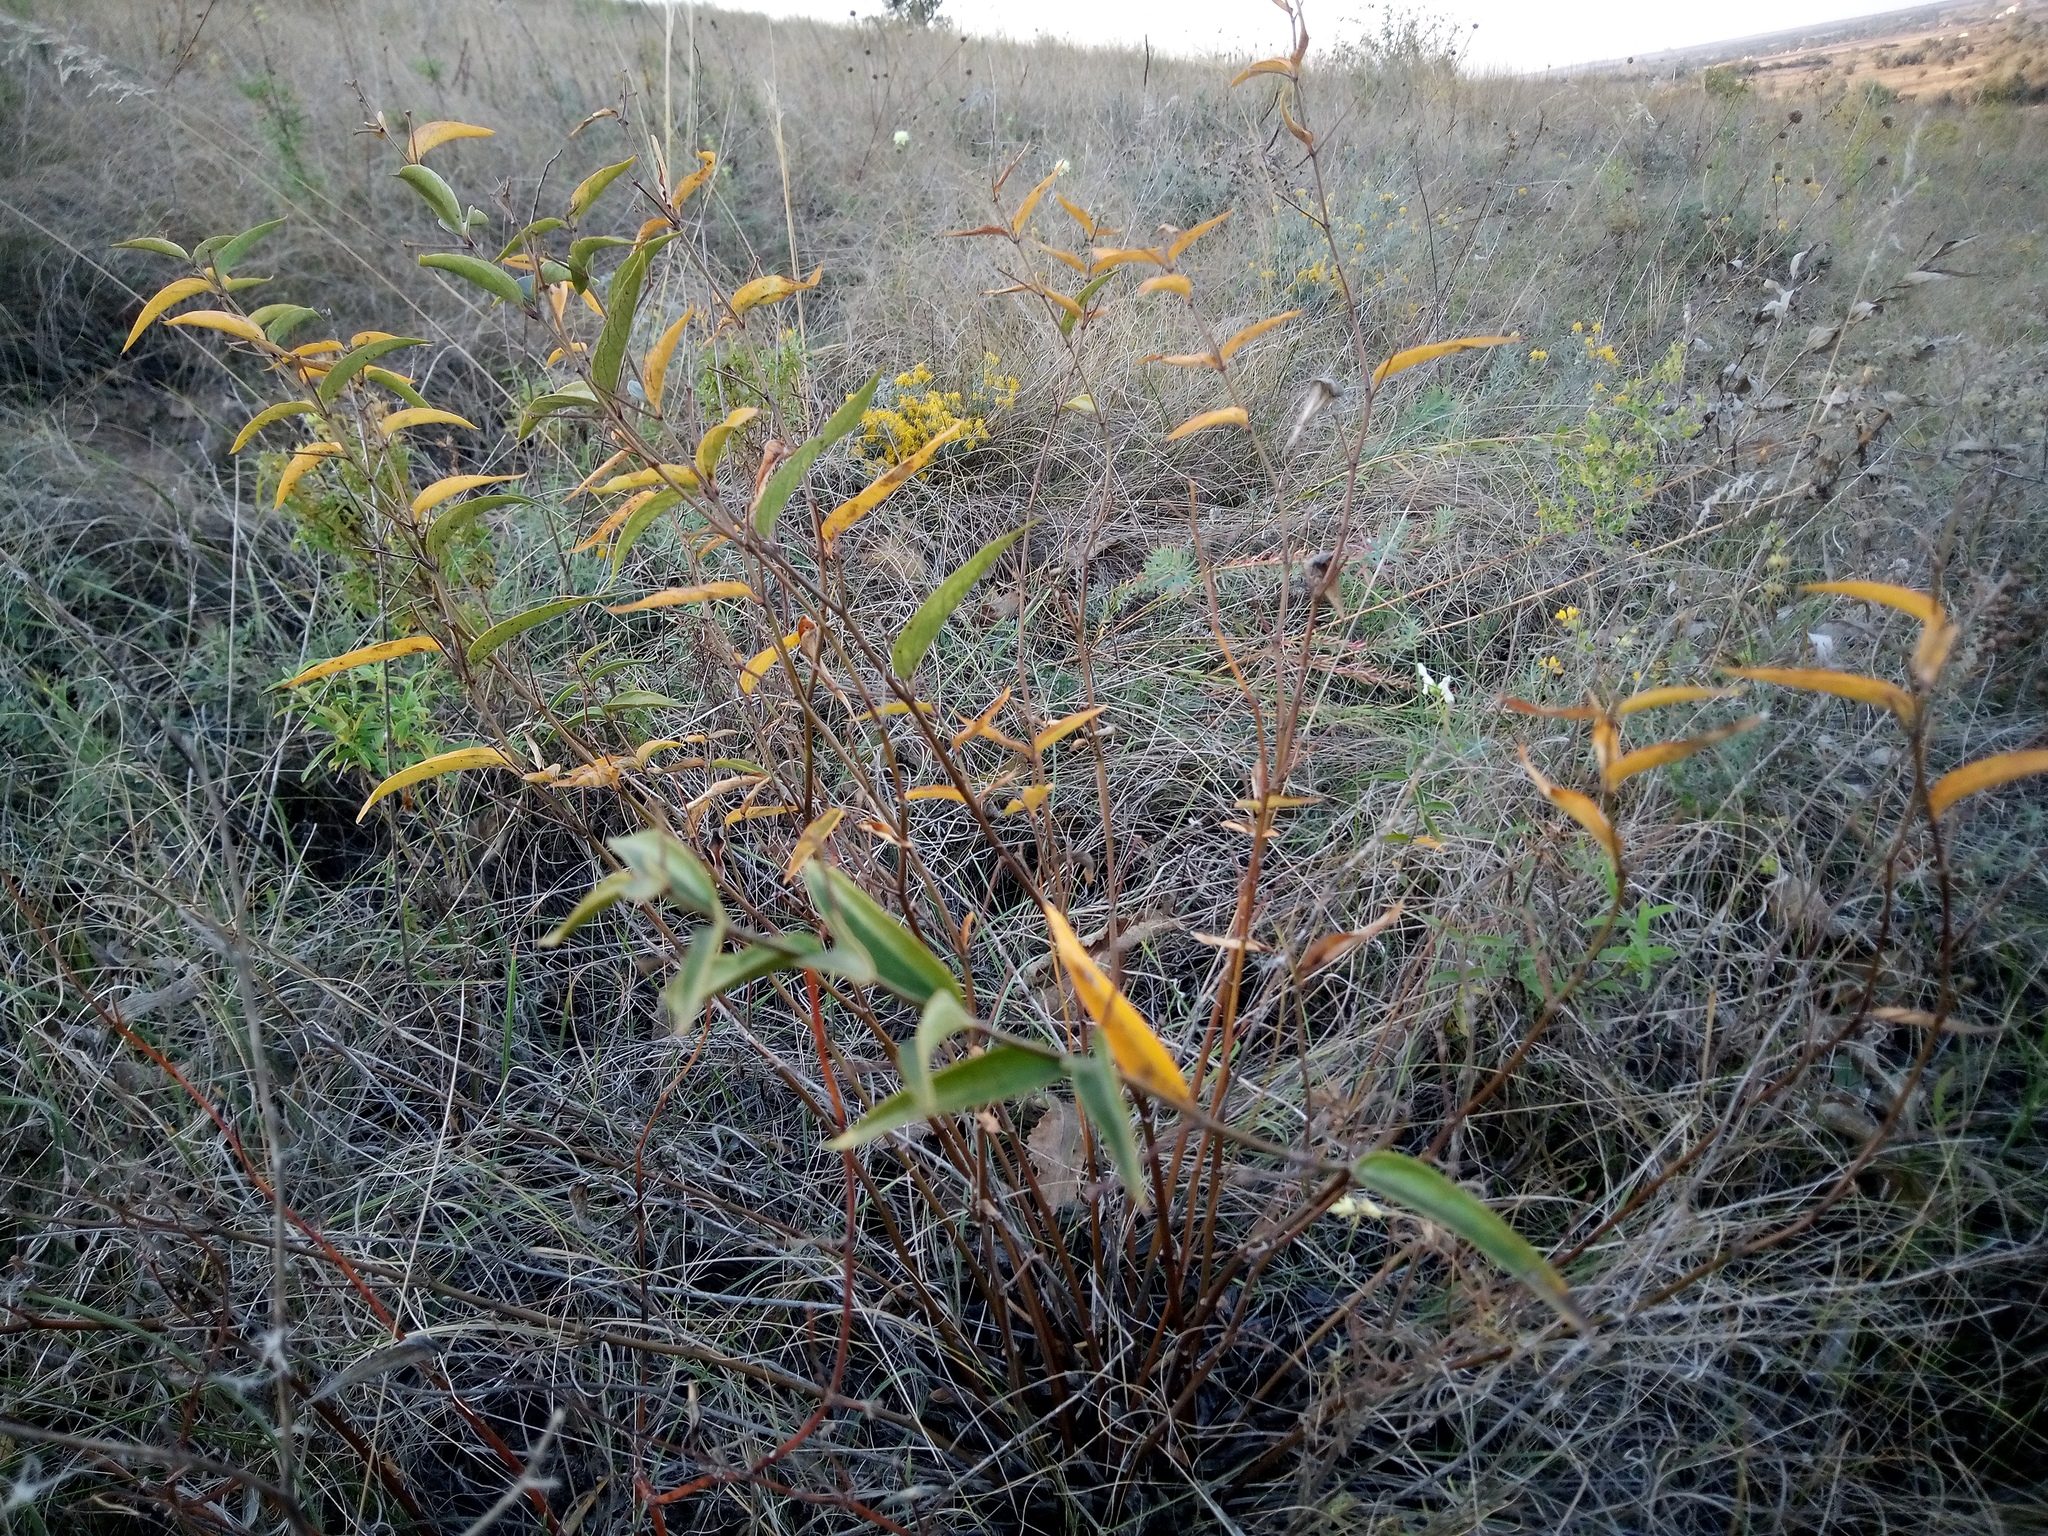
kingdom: Plantae
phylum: Tracheophyta
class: Magnoliopsida
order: Gentianales
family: Apocynaceae
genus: Vincetoxicum
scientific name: Vincetoxicum hirundinaria
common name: White swallowwort
